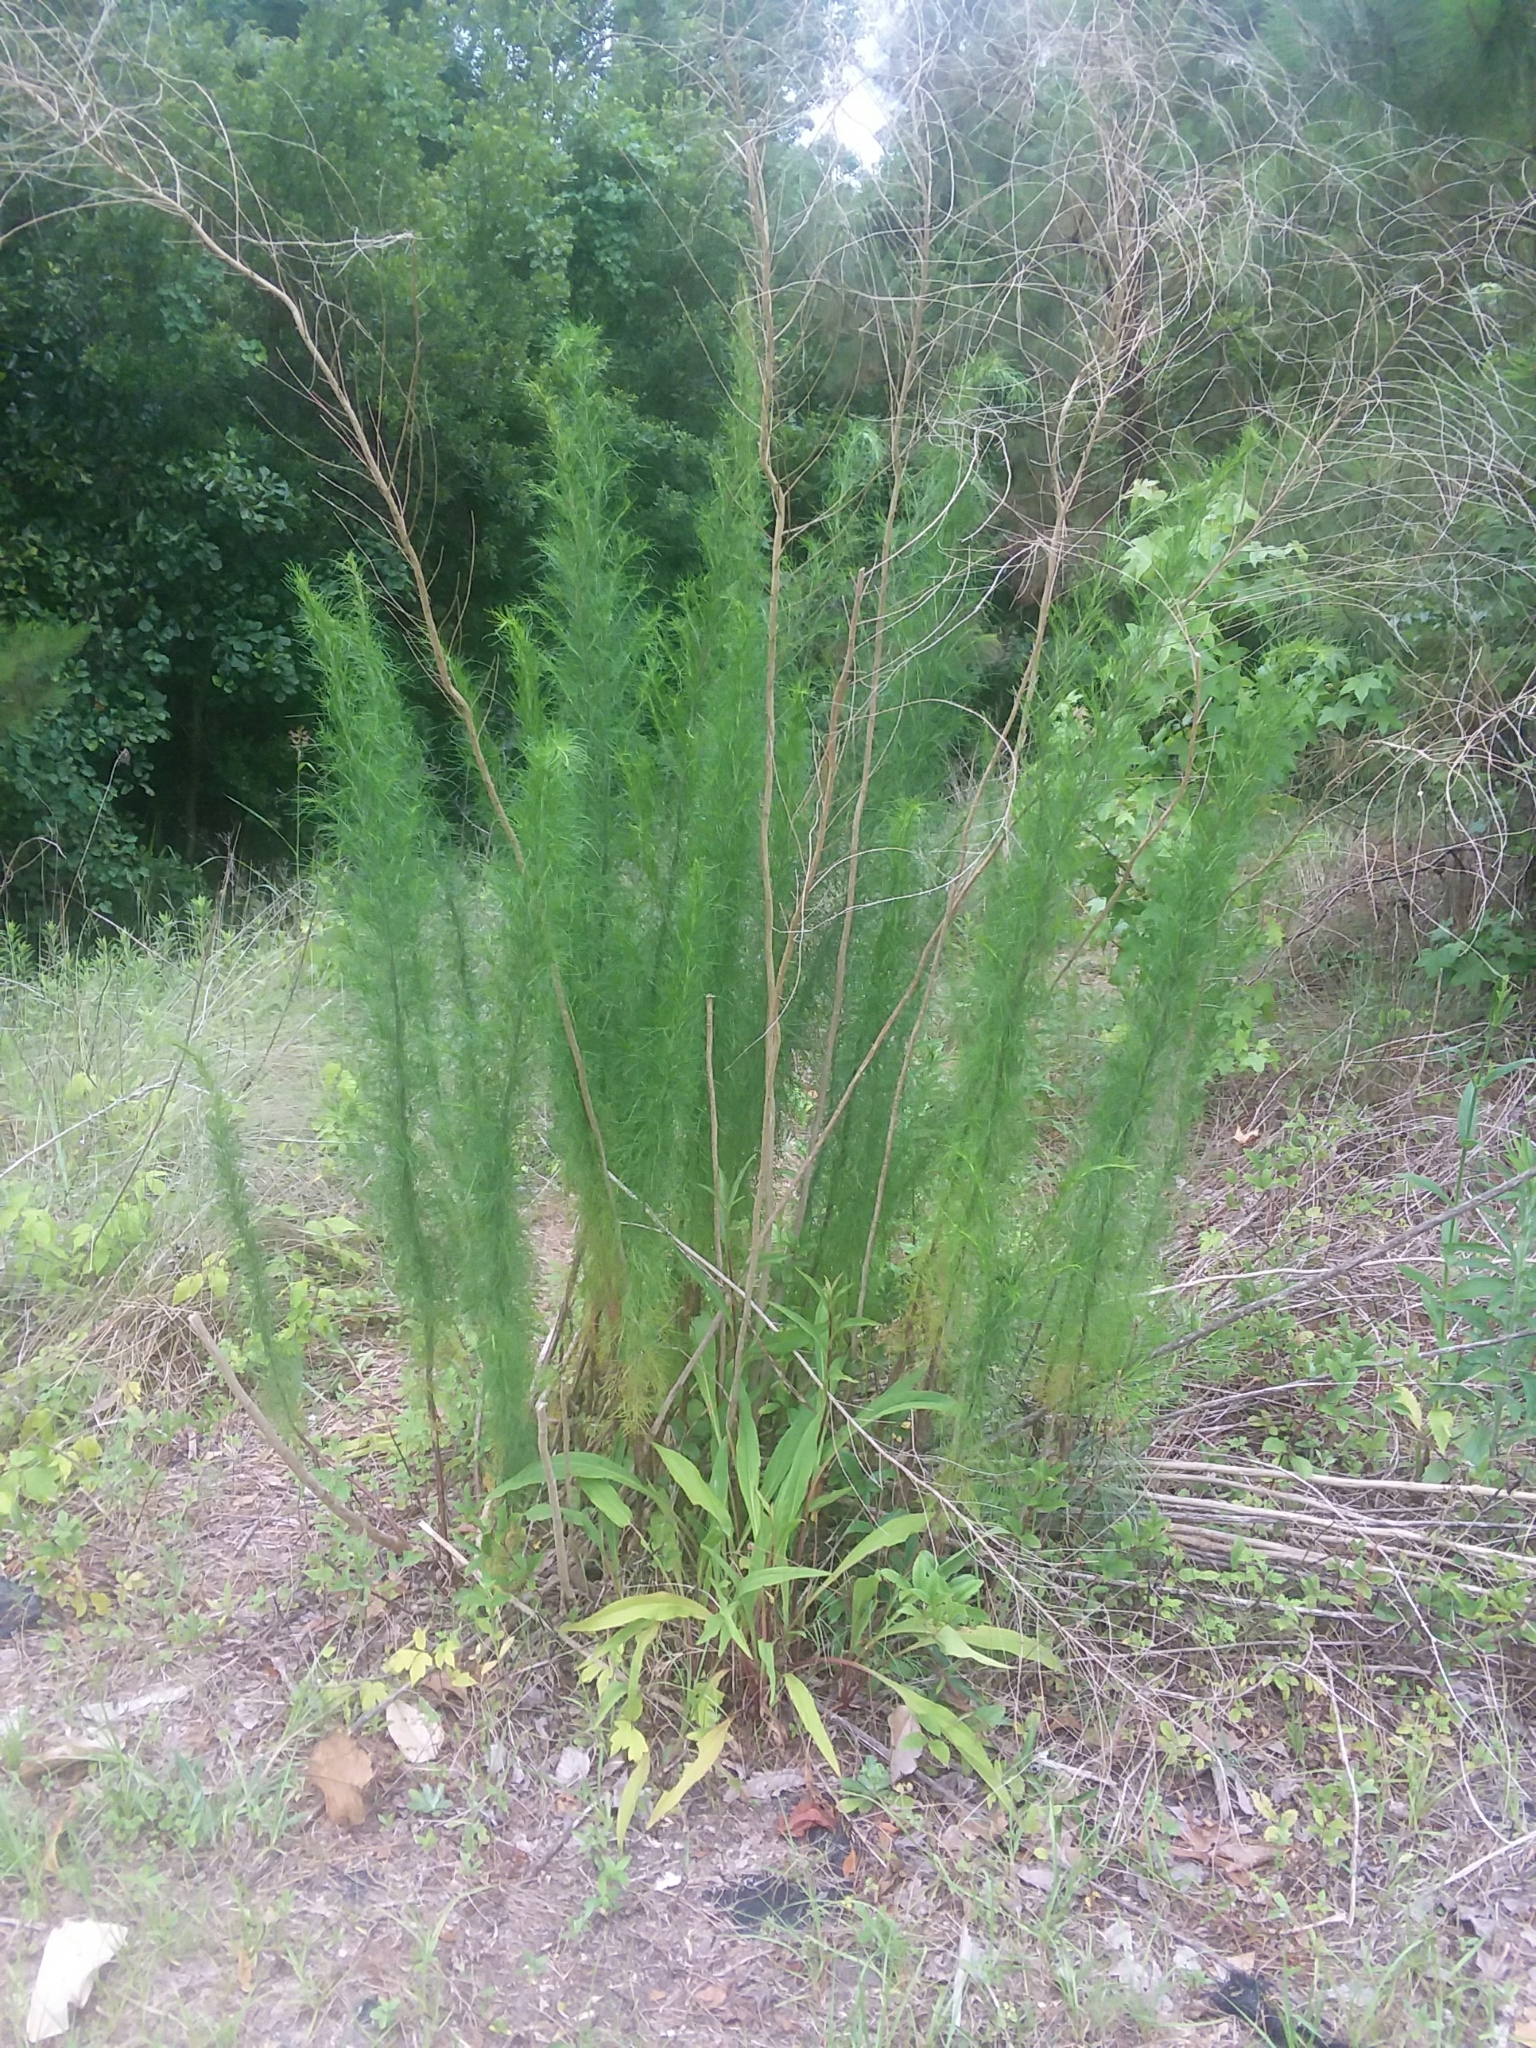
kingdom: Plantae
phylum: Tracheophyta
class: Magnoliopsida
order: Asterales
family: Asteraceae
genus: Eupatorium
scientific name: Eupatorium capillifolium
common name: Dog-fennel
